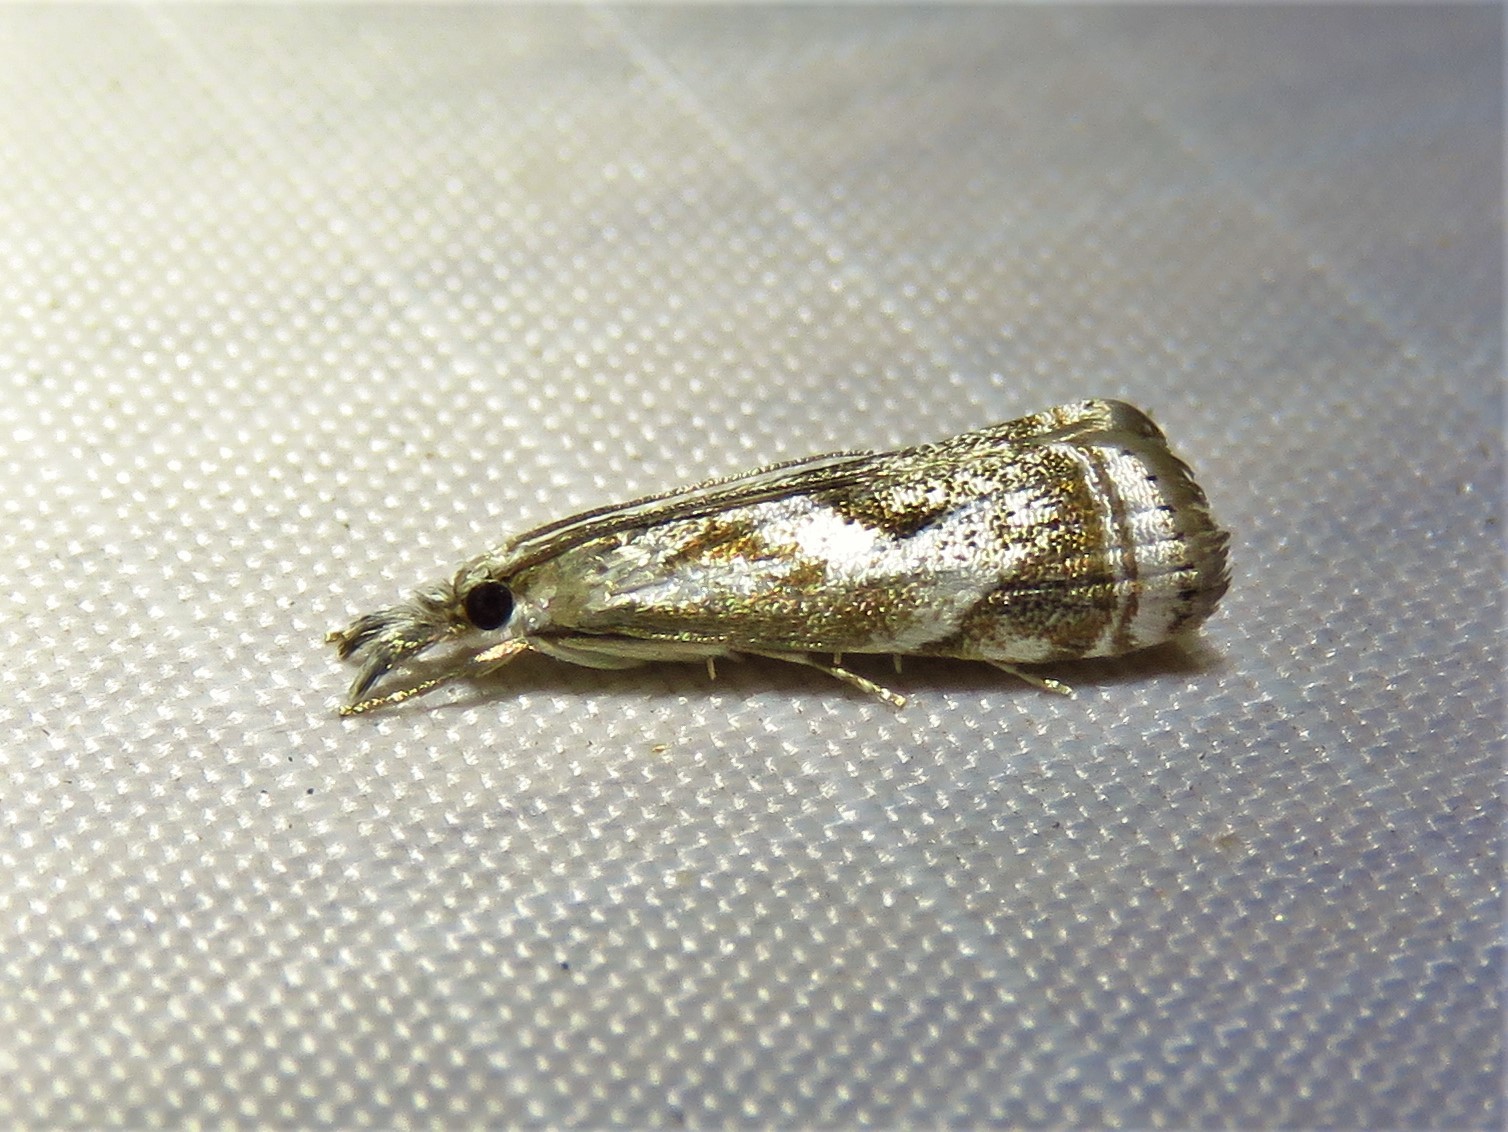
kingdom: Animalia
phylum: Arthropoda
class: Insecta
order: Lepidoptera
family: Crambidae
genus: Microcrambus
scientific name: Microcrambus elegans
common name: Elegant grass-veneer
